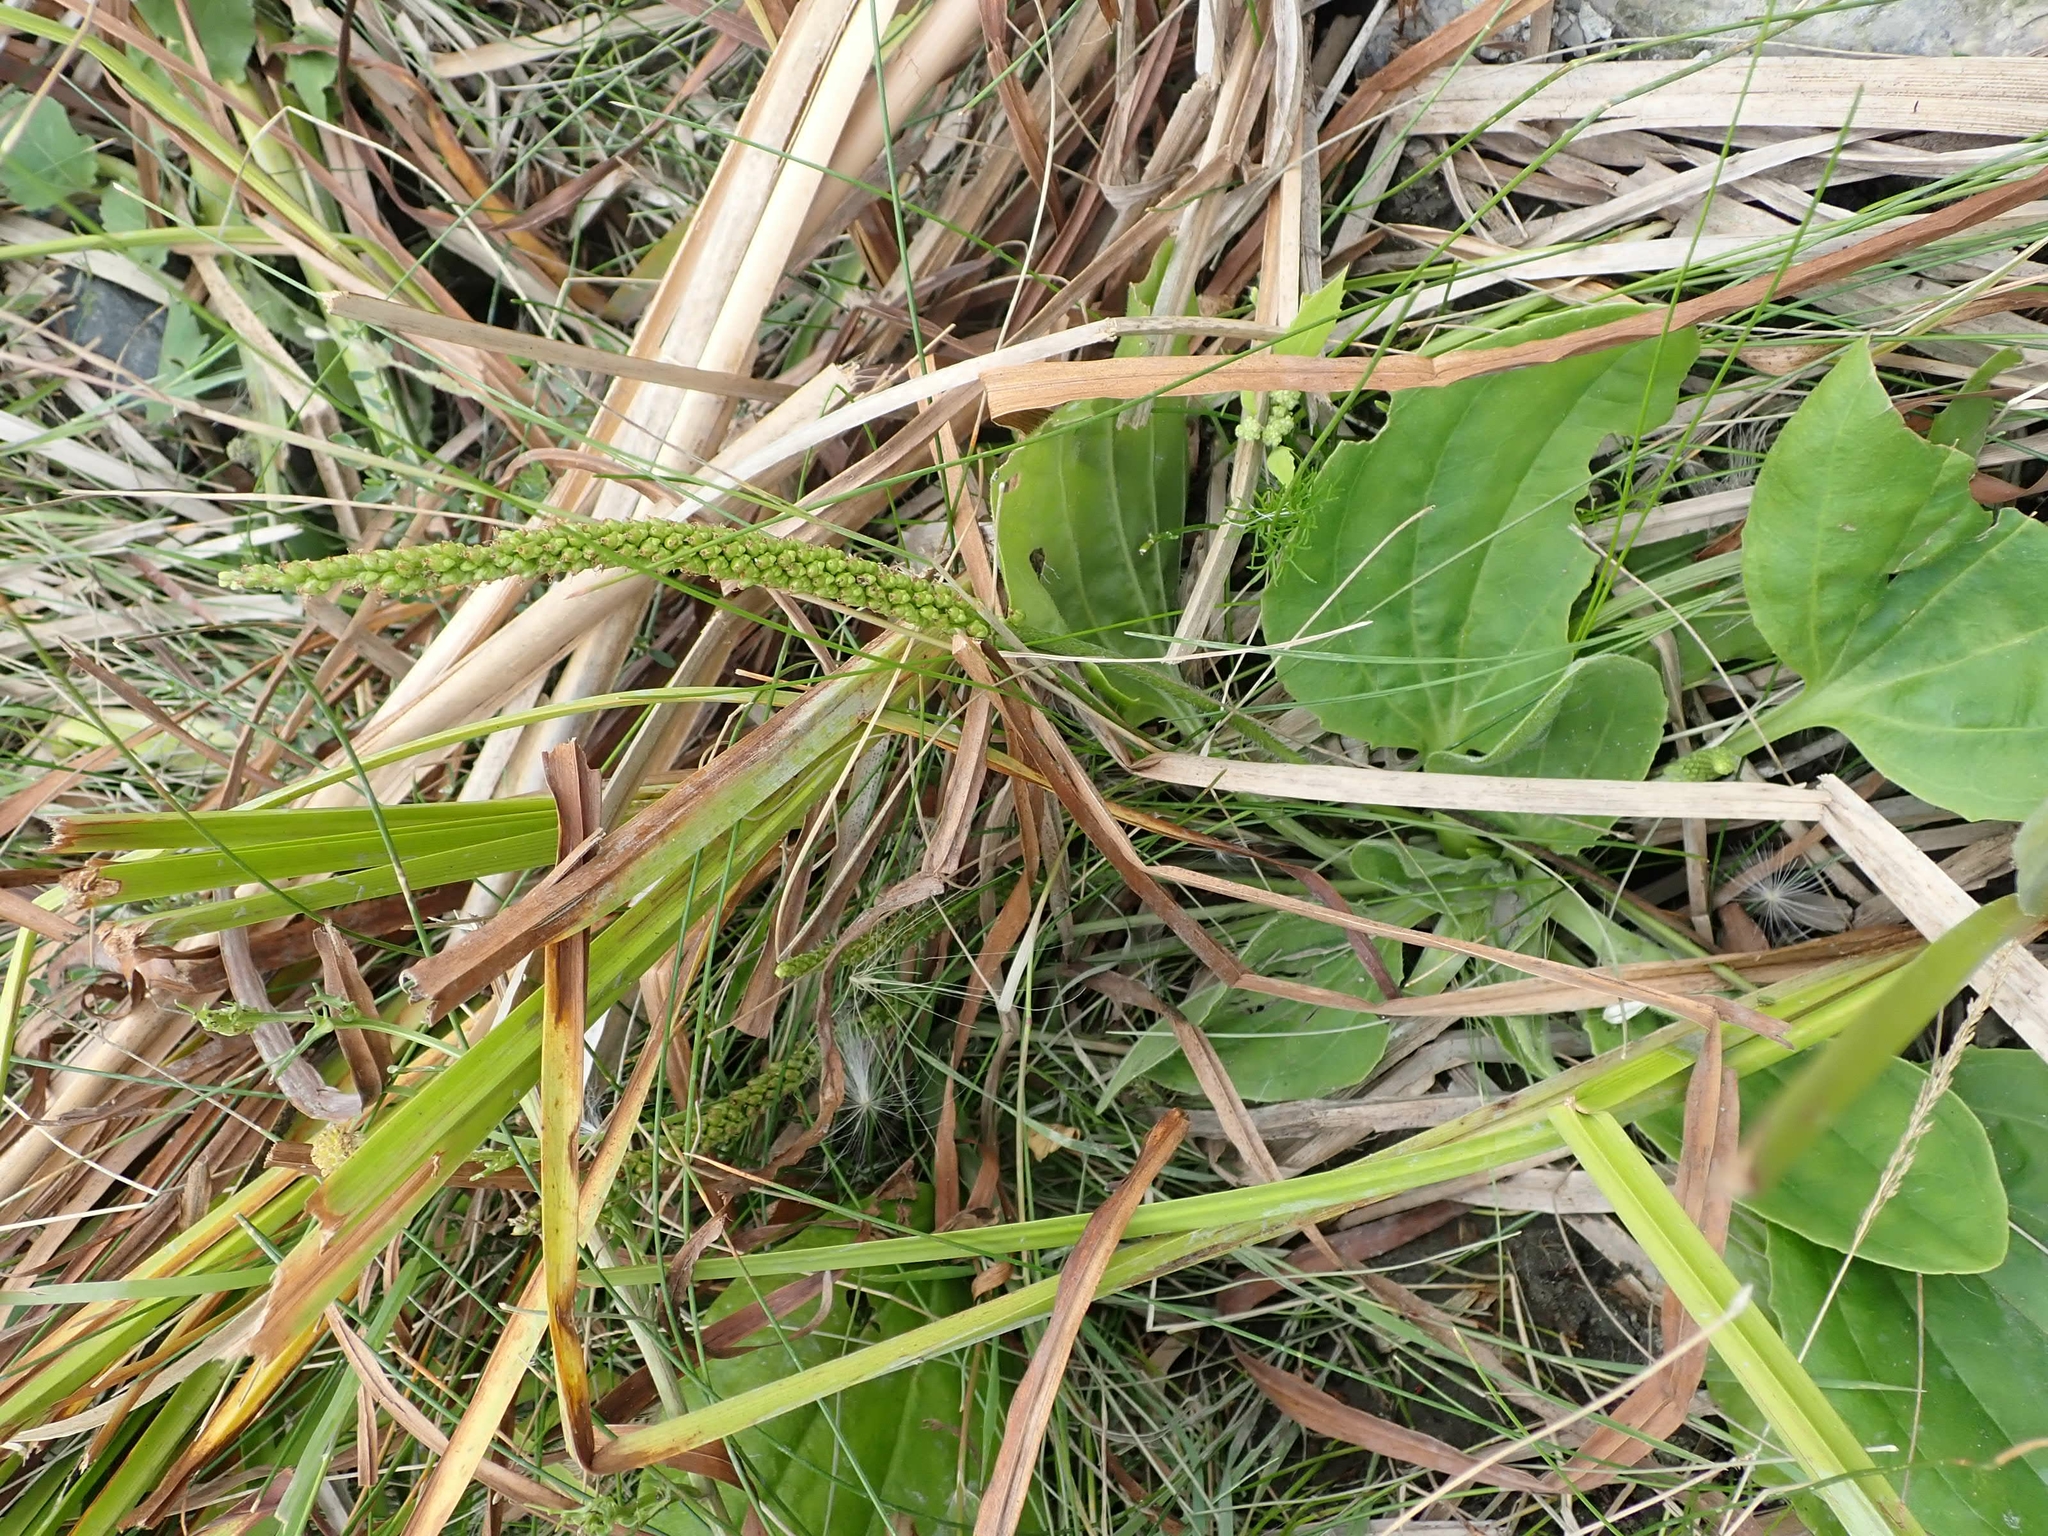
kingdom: Plantae
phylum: Tracheophyta
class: Magnoliopsida
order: Lamiales
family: Plantaginaceae
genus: Plantago
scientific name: Plantago major
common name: Common plantain
